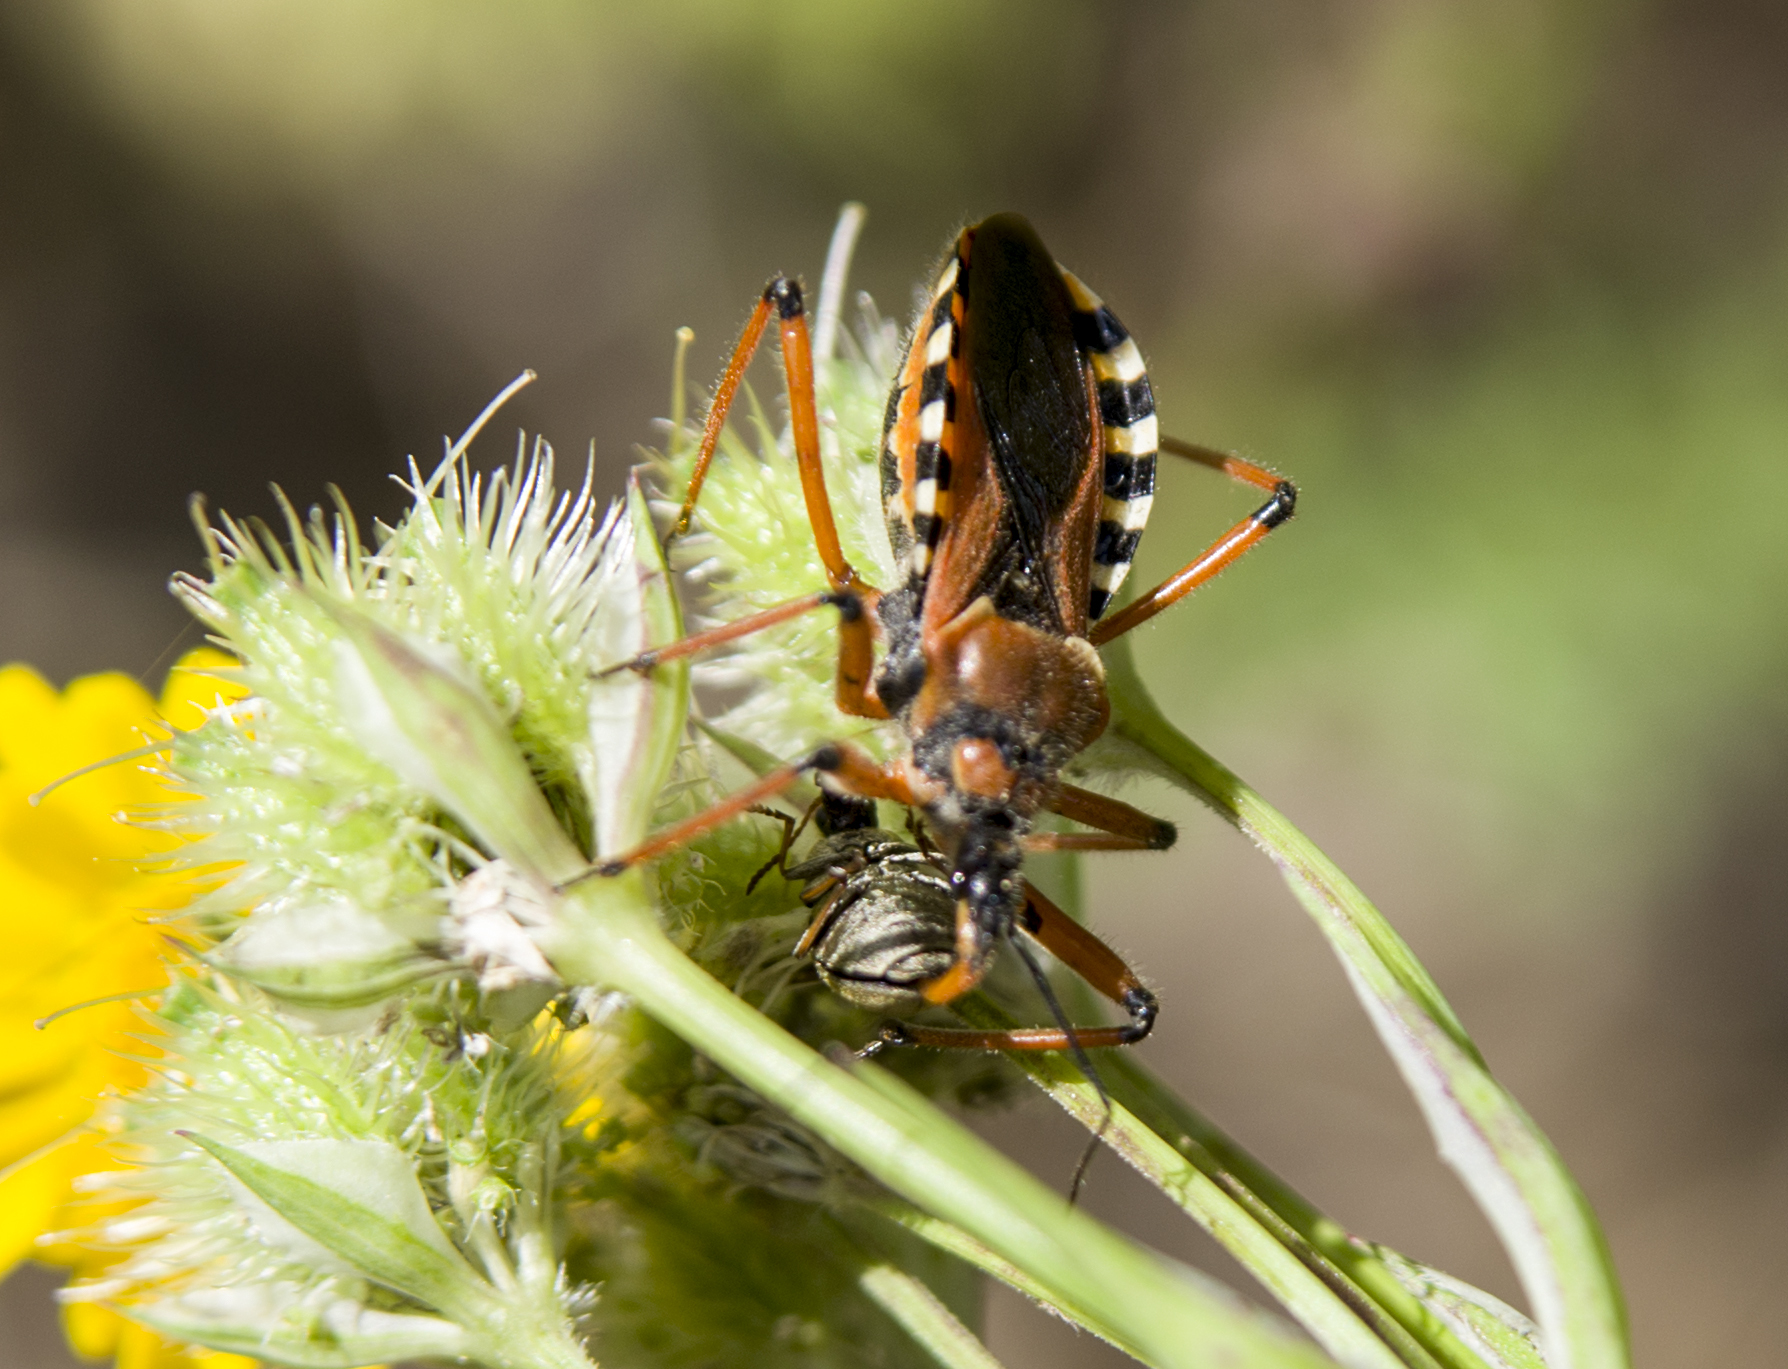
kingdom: Animalia
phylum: Arthropoda
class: Insecta
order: Hemiptera
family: Reduviidae
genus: Rhynocoris
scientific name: Rhynocoris iracundus
